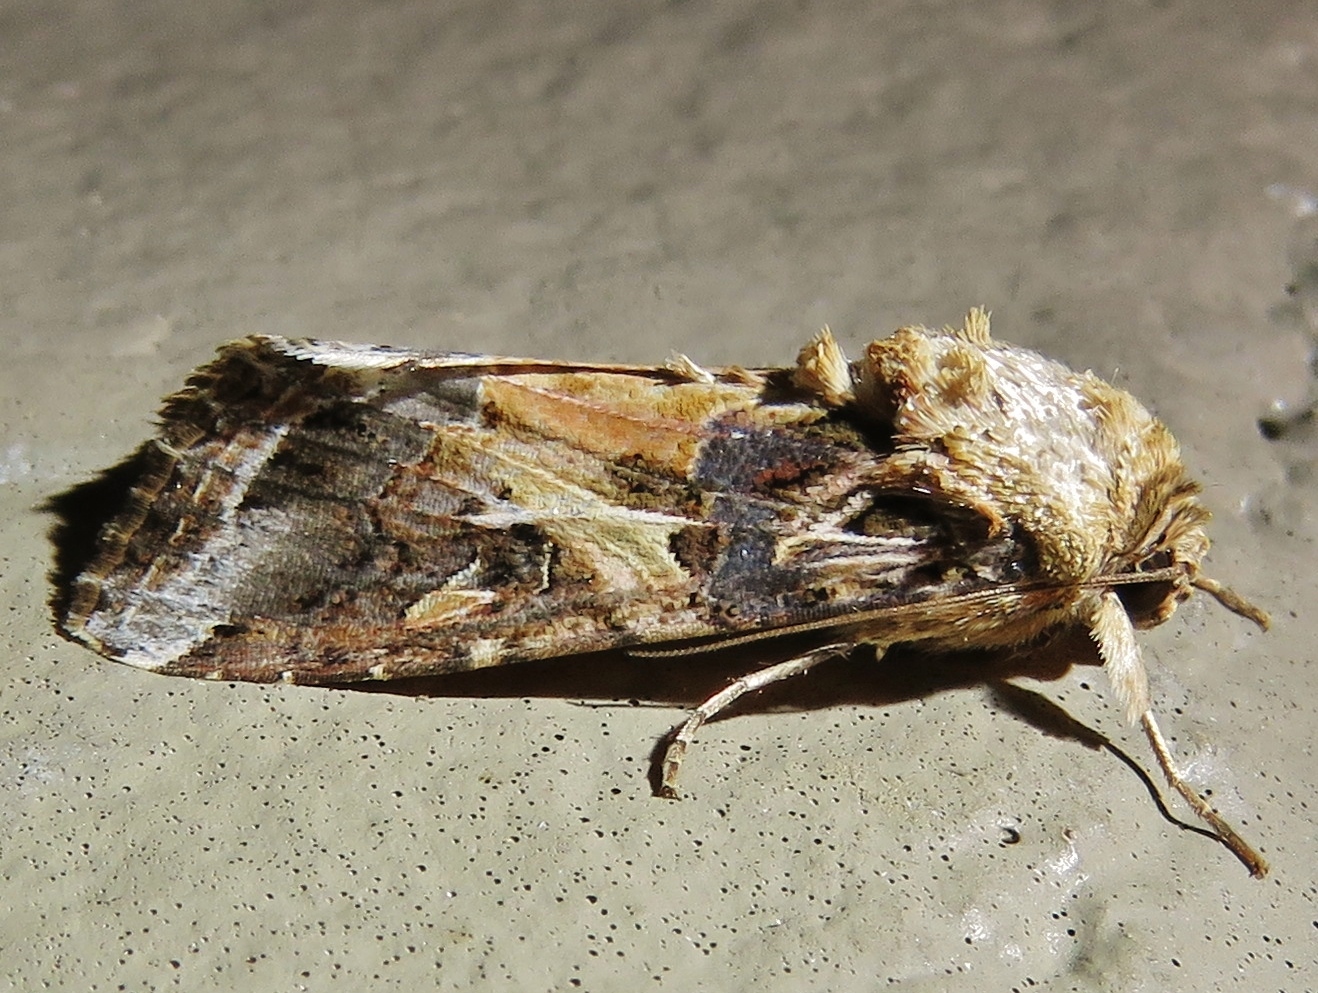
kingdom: Animalia
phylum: Arthropoda
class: Insecta
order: Lepidoptera
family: Noctuidae
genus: Spodoptera
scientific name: Spodoptera ornithogalli
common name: Yellow-striped armyworm
